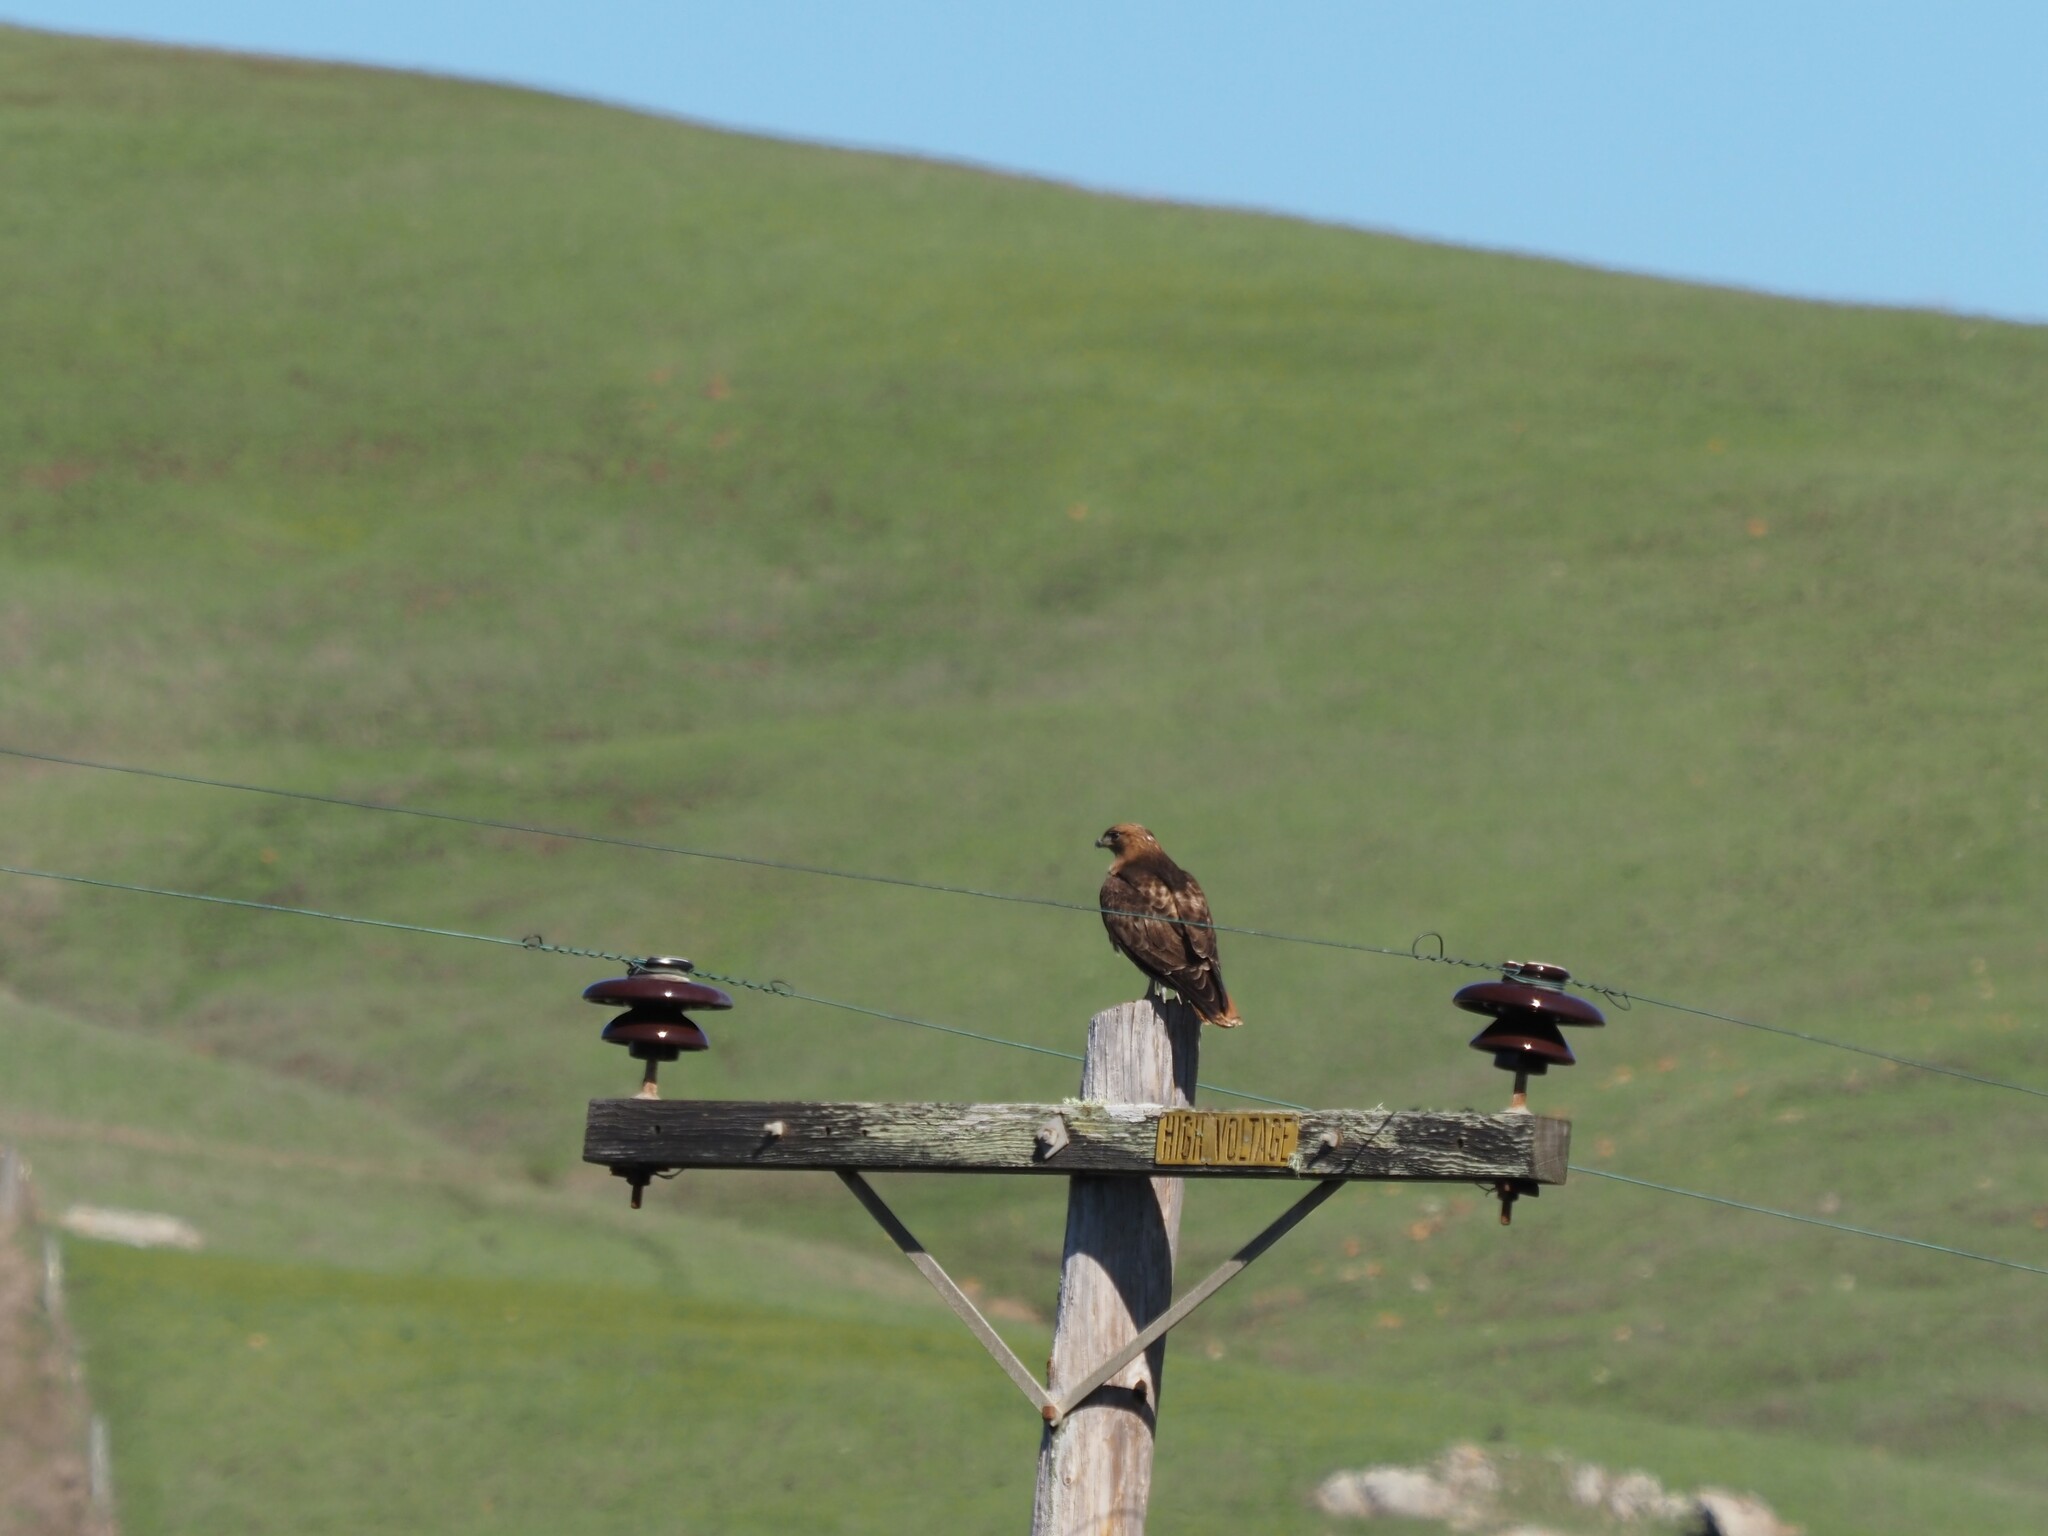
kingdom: Animalia
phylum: Chordata
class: Aves
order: Accipitriformes
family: Accipitridae
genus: Buteo
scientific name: Buteo jamaicensis
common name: Red-tailed hawk
